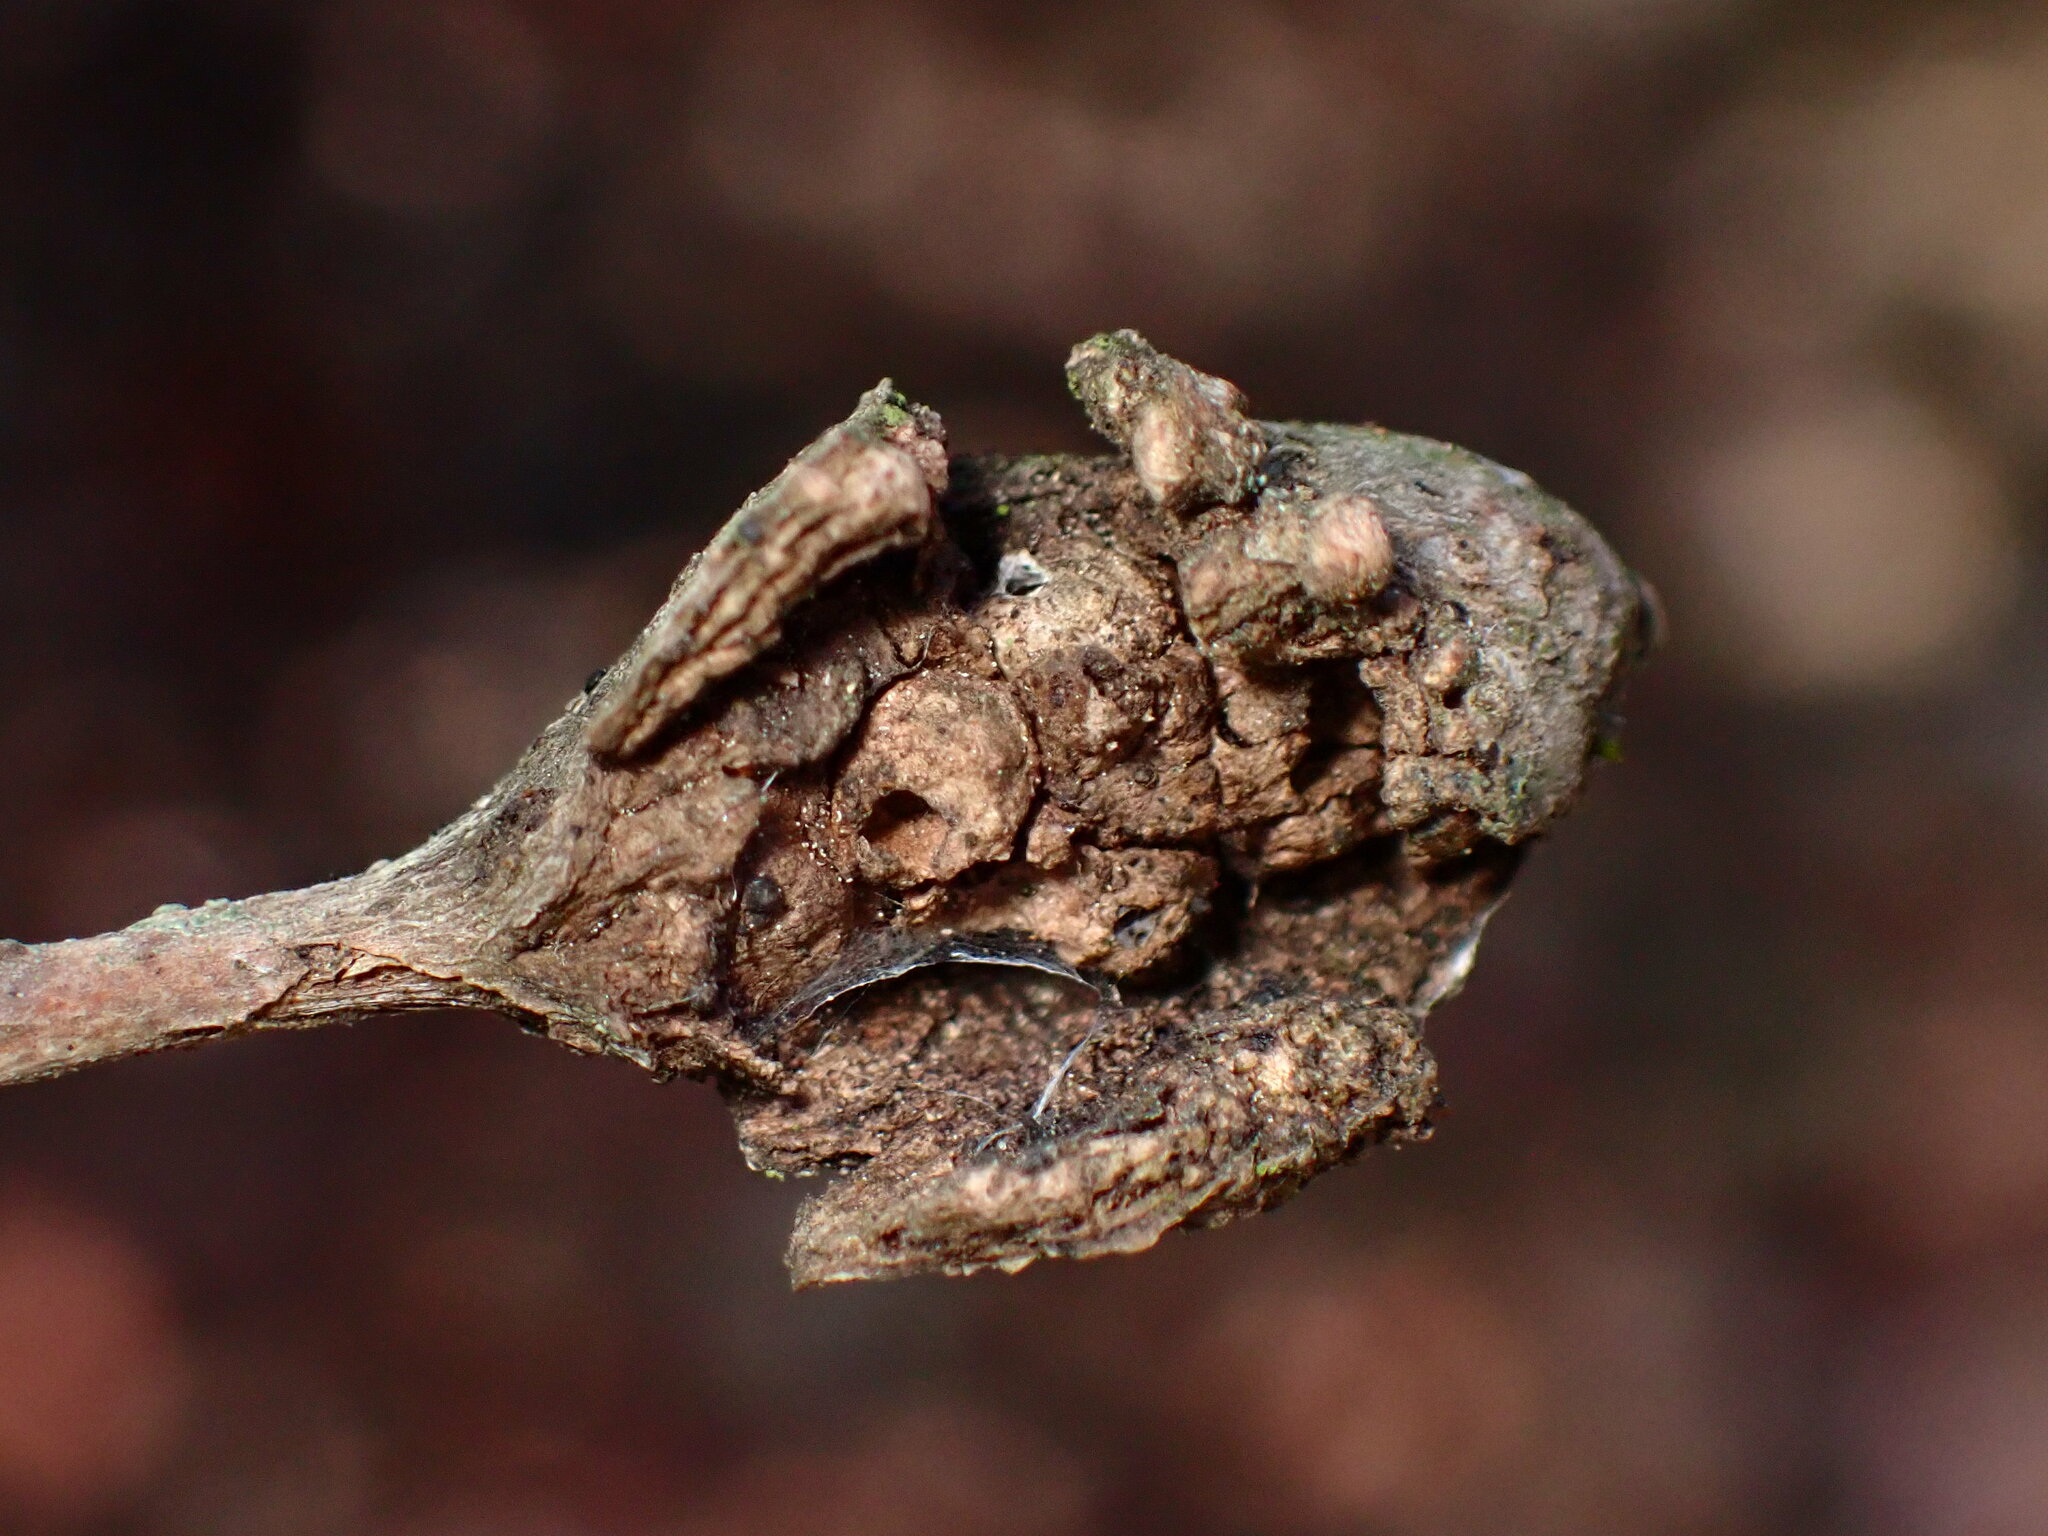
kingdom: Animalia
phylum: Arthropoda
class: Insecta
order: Hymenoptera
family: Cynipidae
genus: Dryocosmus
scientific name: Dryocosmus
